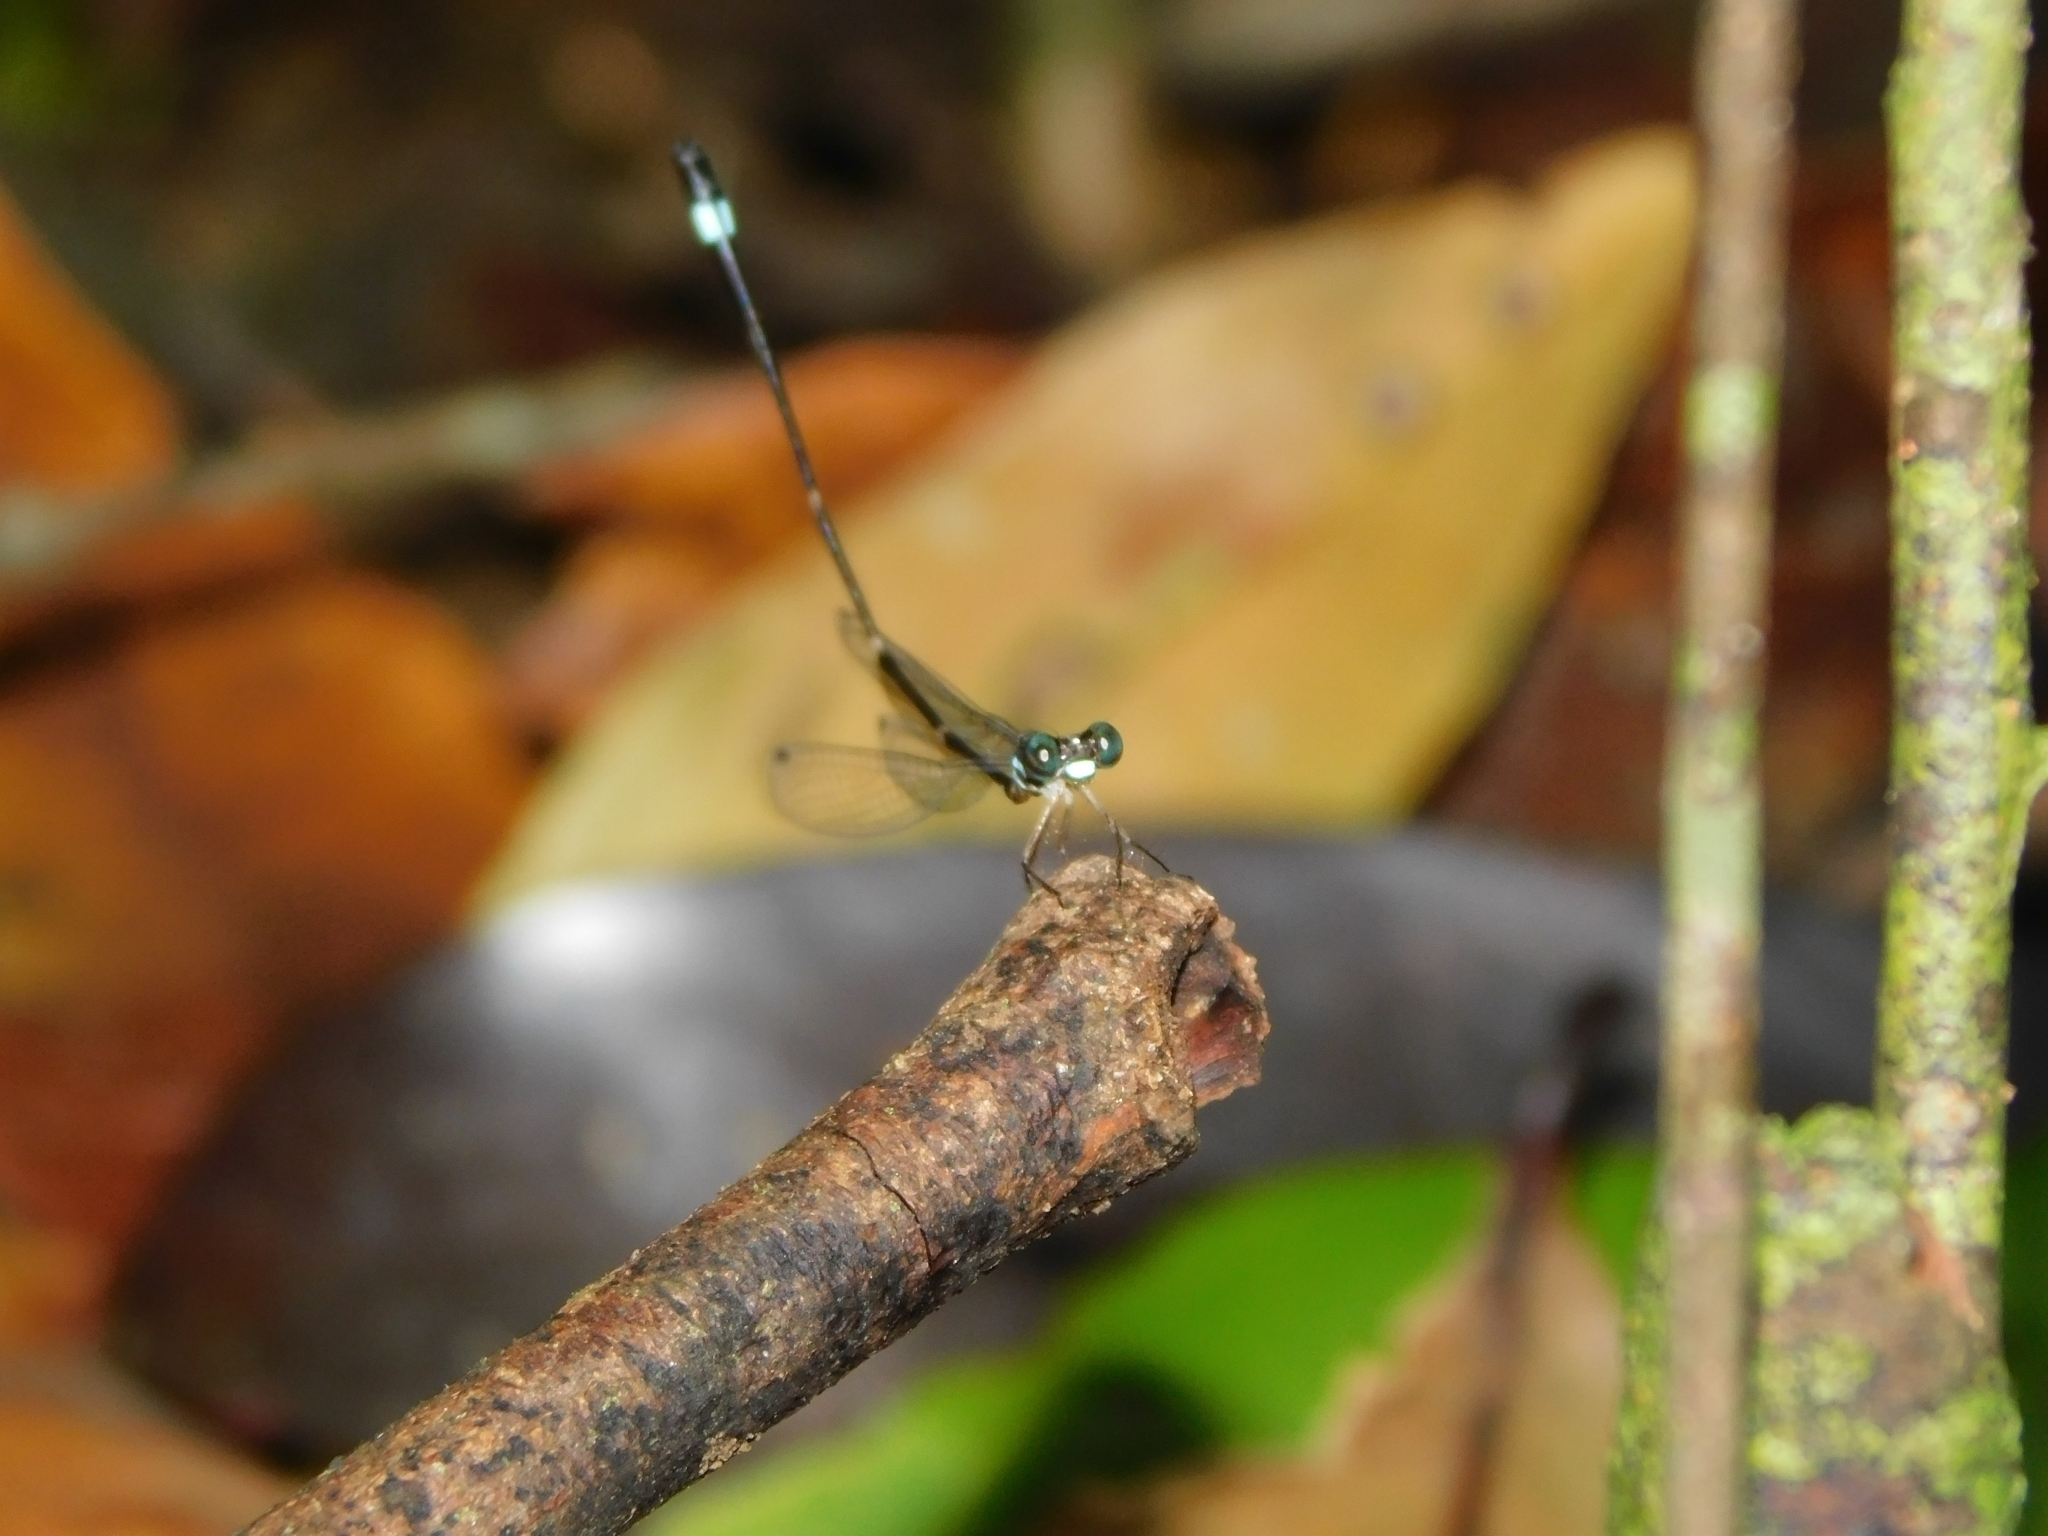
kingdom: Animalia
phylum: Arthropoda
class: Insecta
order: Odonata
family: Platystictidae
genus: Protosticta
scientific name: Protosticta sanguinostigma
